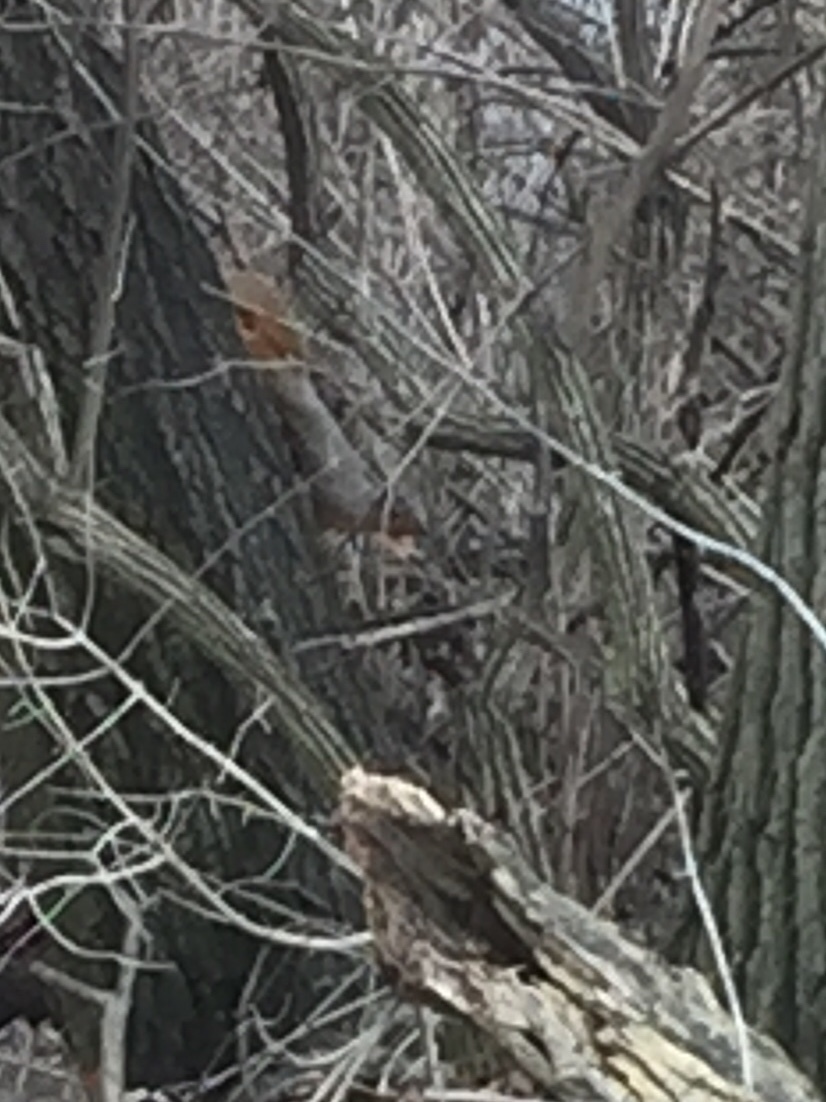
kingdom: Animalia
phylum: Chordata
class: Mammalia
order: Rodentia
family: Sciuridae
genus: Sciurus
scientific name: Sciurus niger
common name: Fox squirrel
